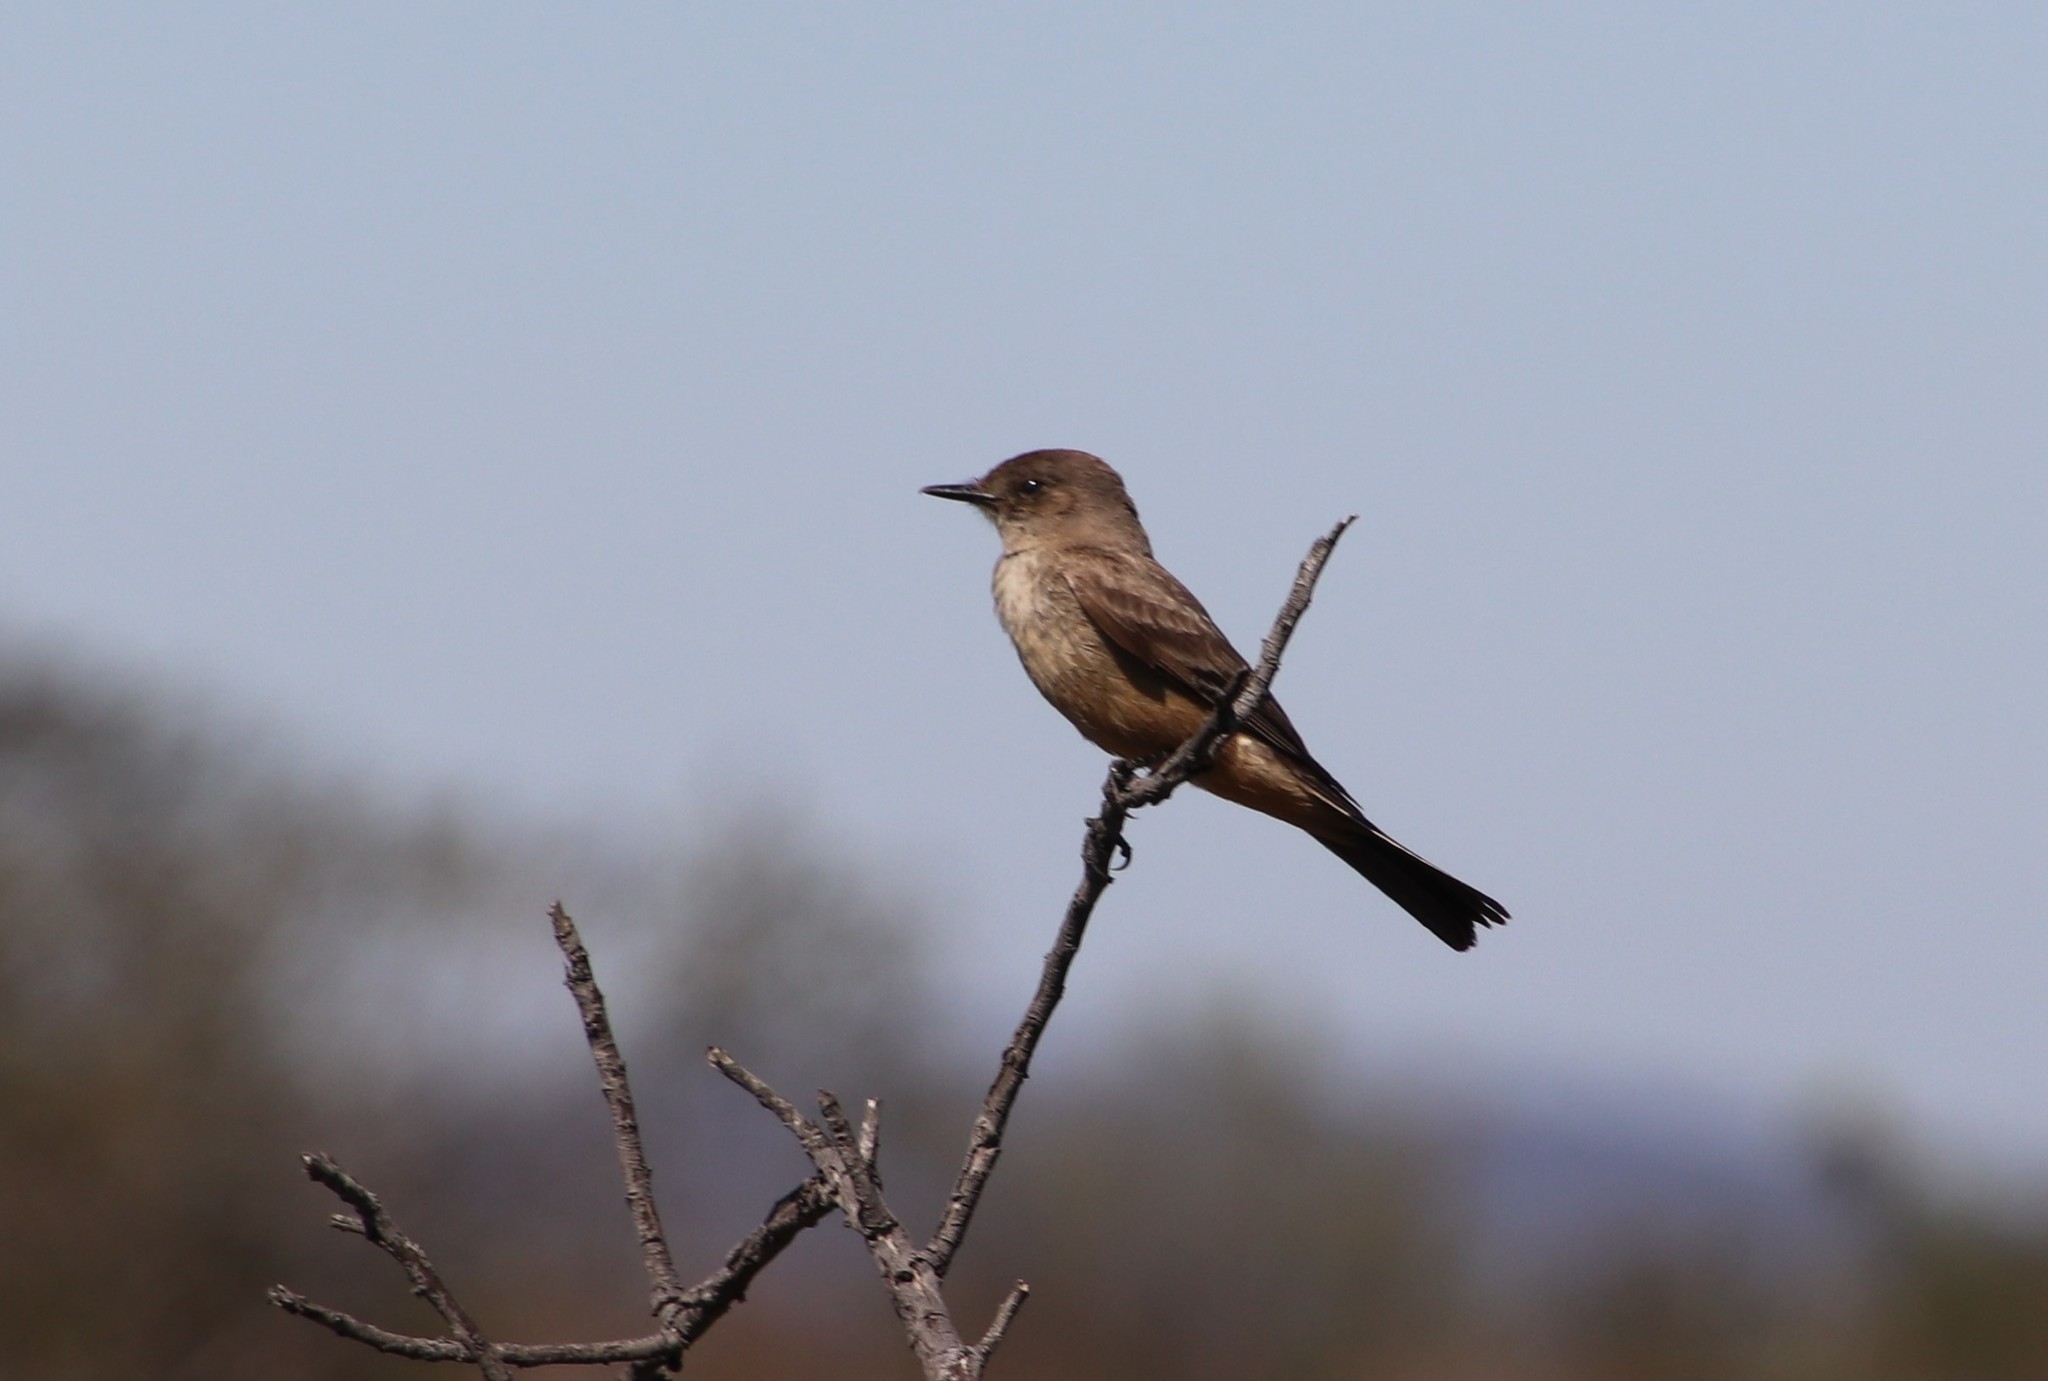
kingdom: Animalia
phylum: Chordata
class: Aves
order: Passeriformes
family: Tyrannidae
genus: Sayornis
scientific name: Sayornis saya
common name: Say's phoebe
